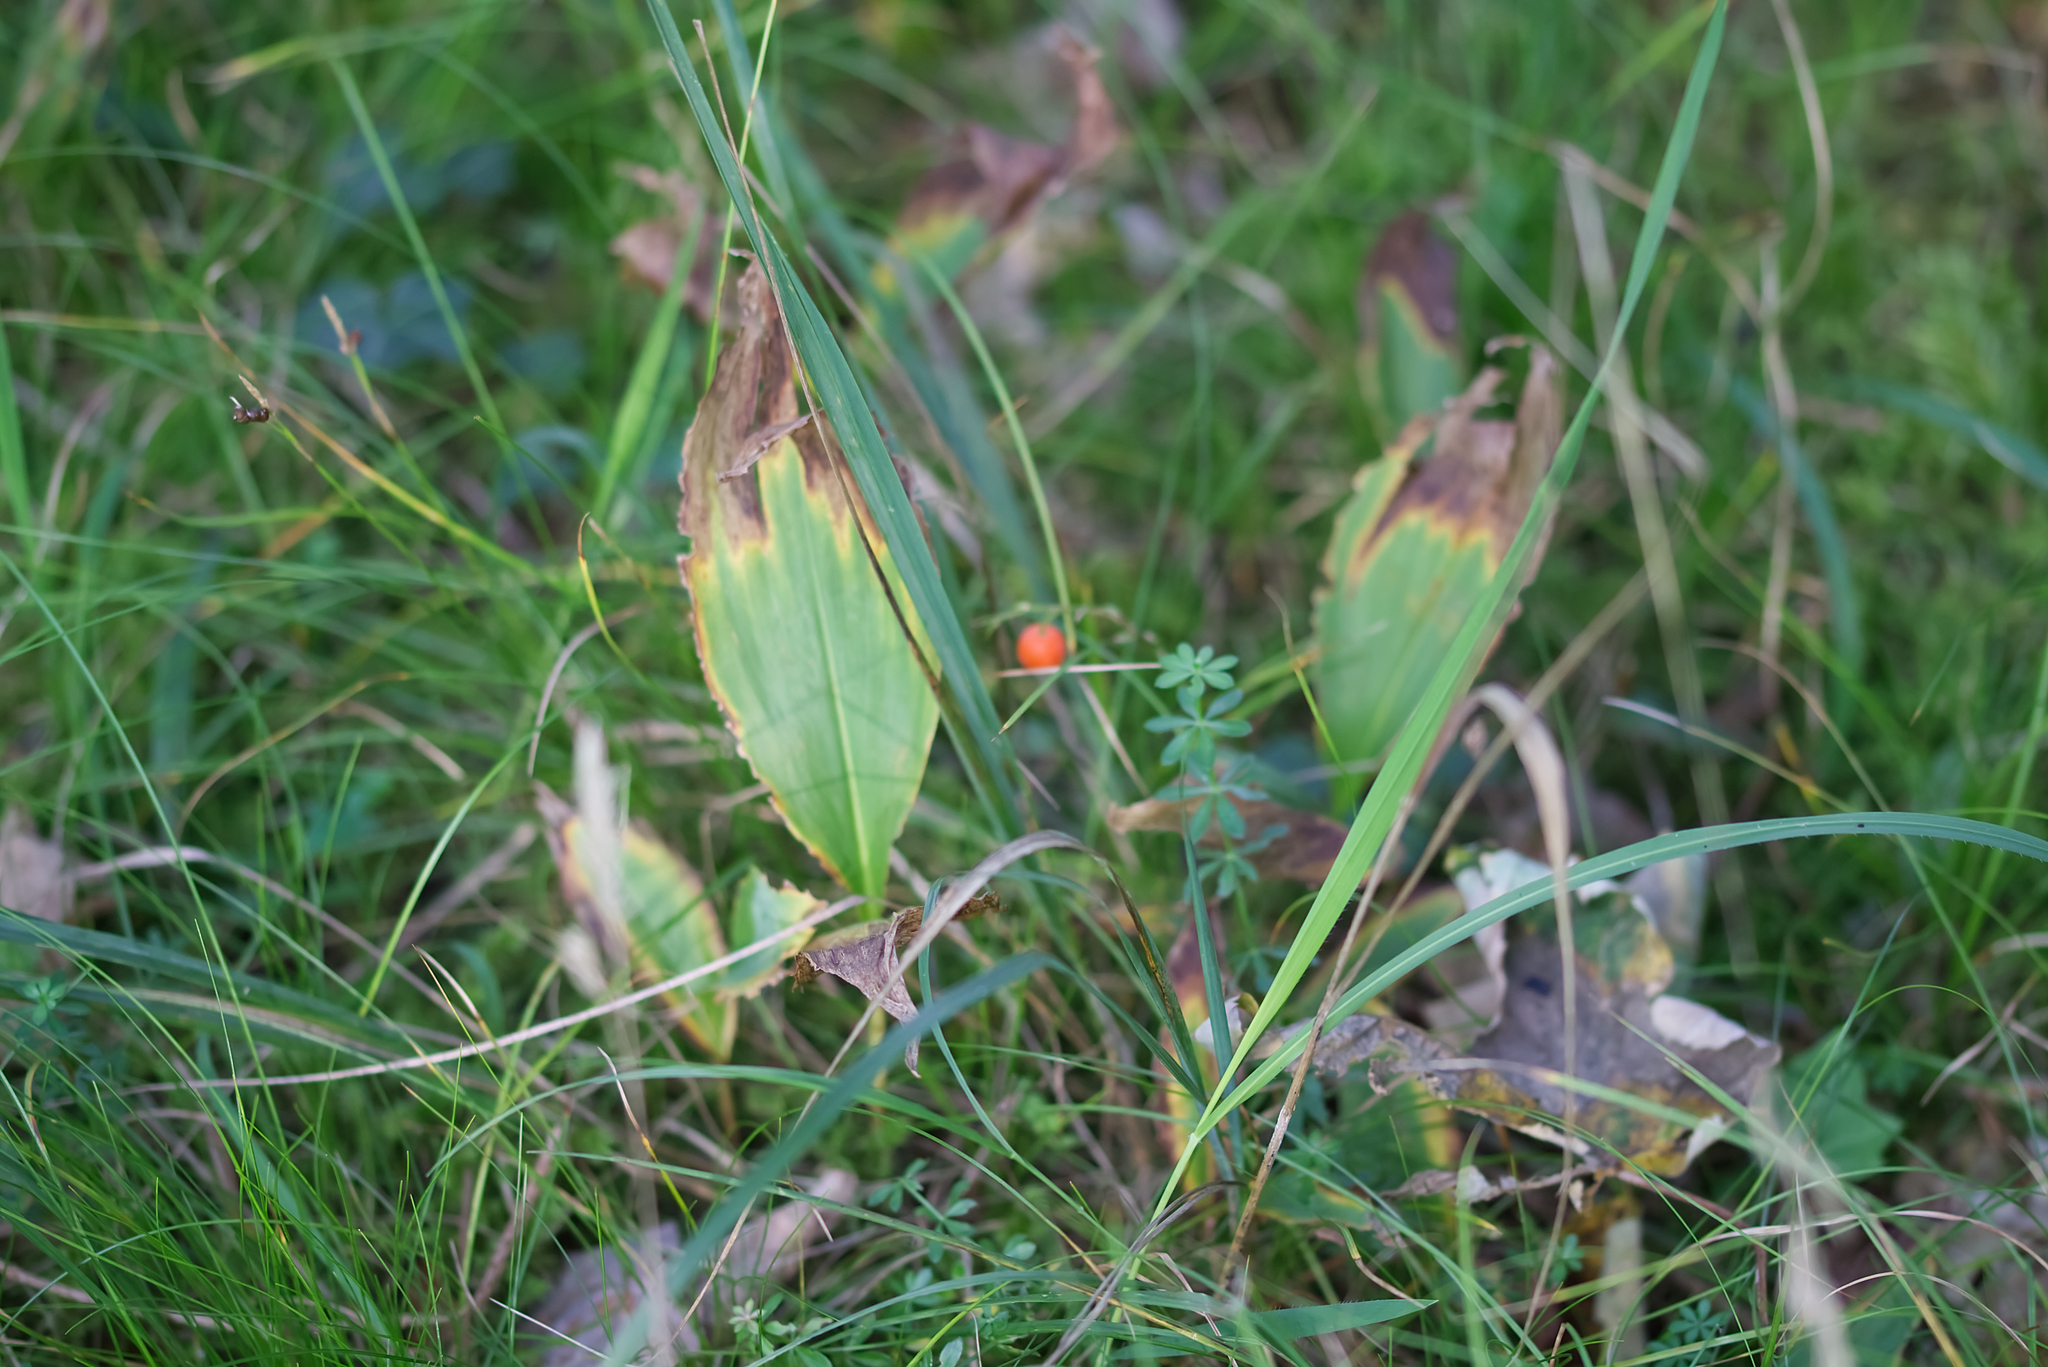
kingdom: Plantae
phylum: Tracheophyta
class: Liliopsida
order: Asparagales
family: Asparagaceae
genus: Convallaria
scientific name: Convallaria majalis
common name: Lily-of-the-valley
